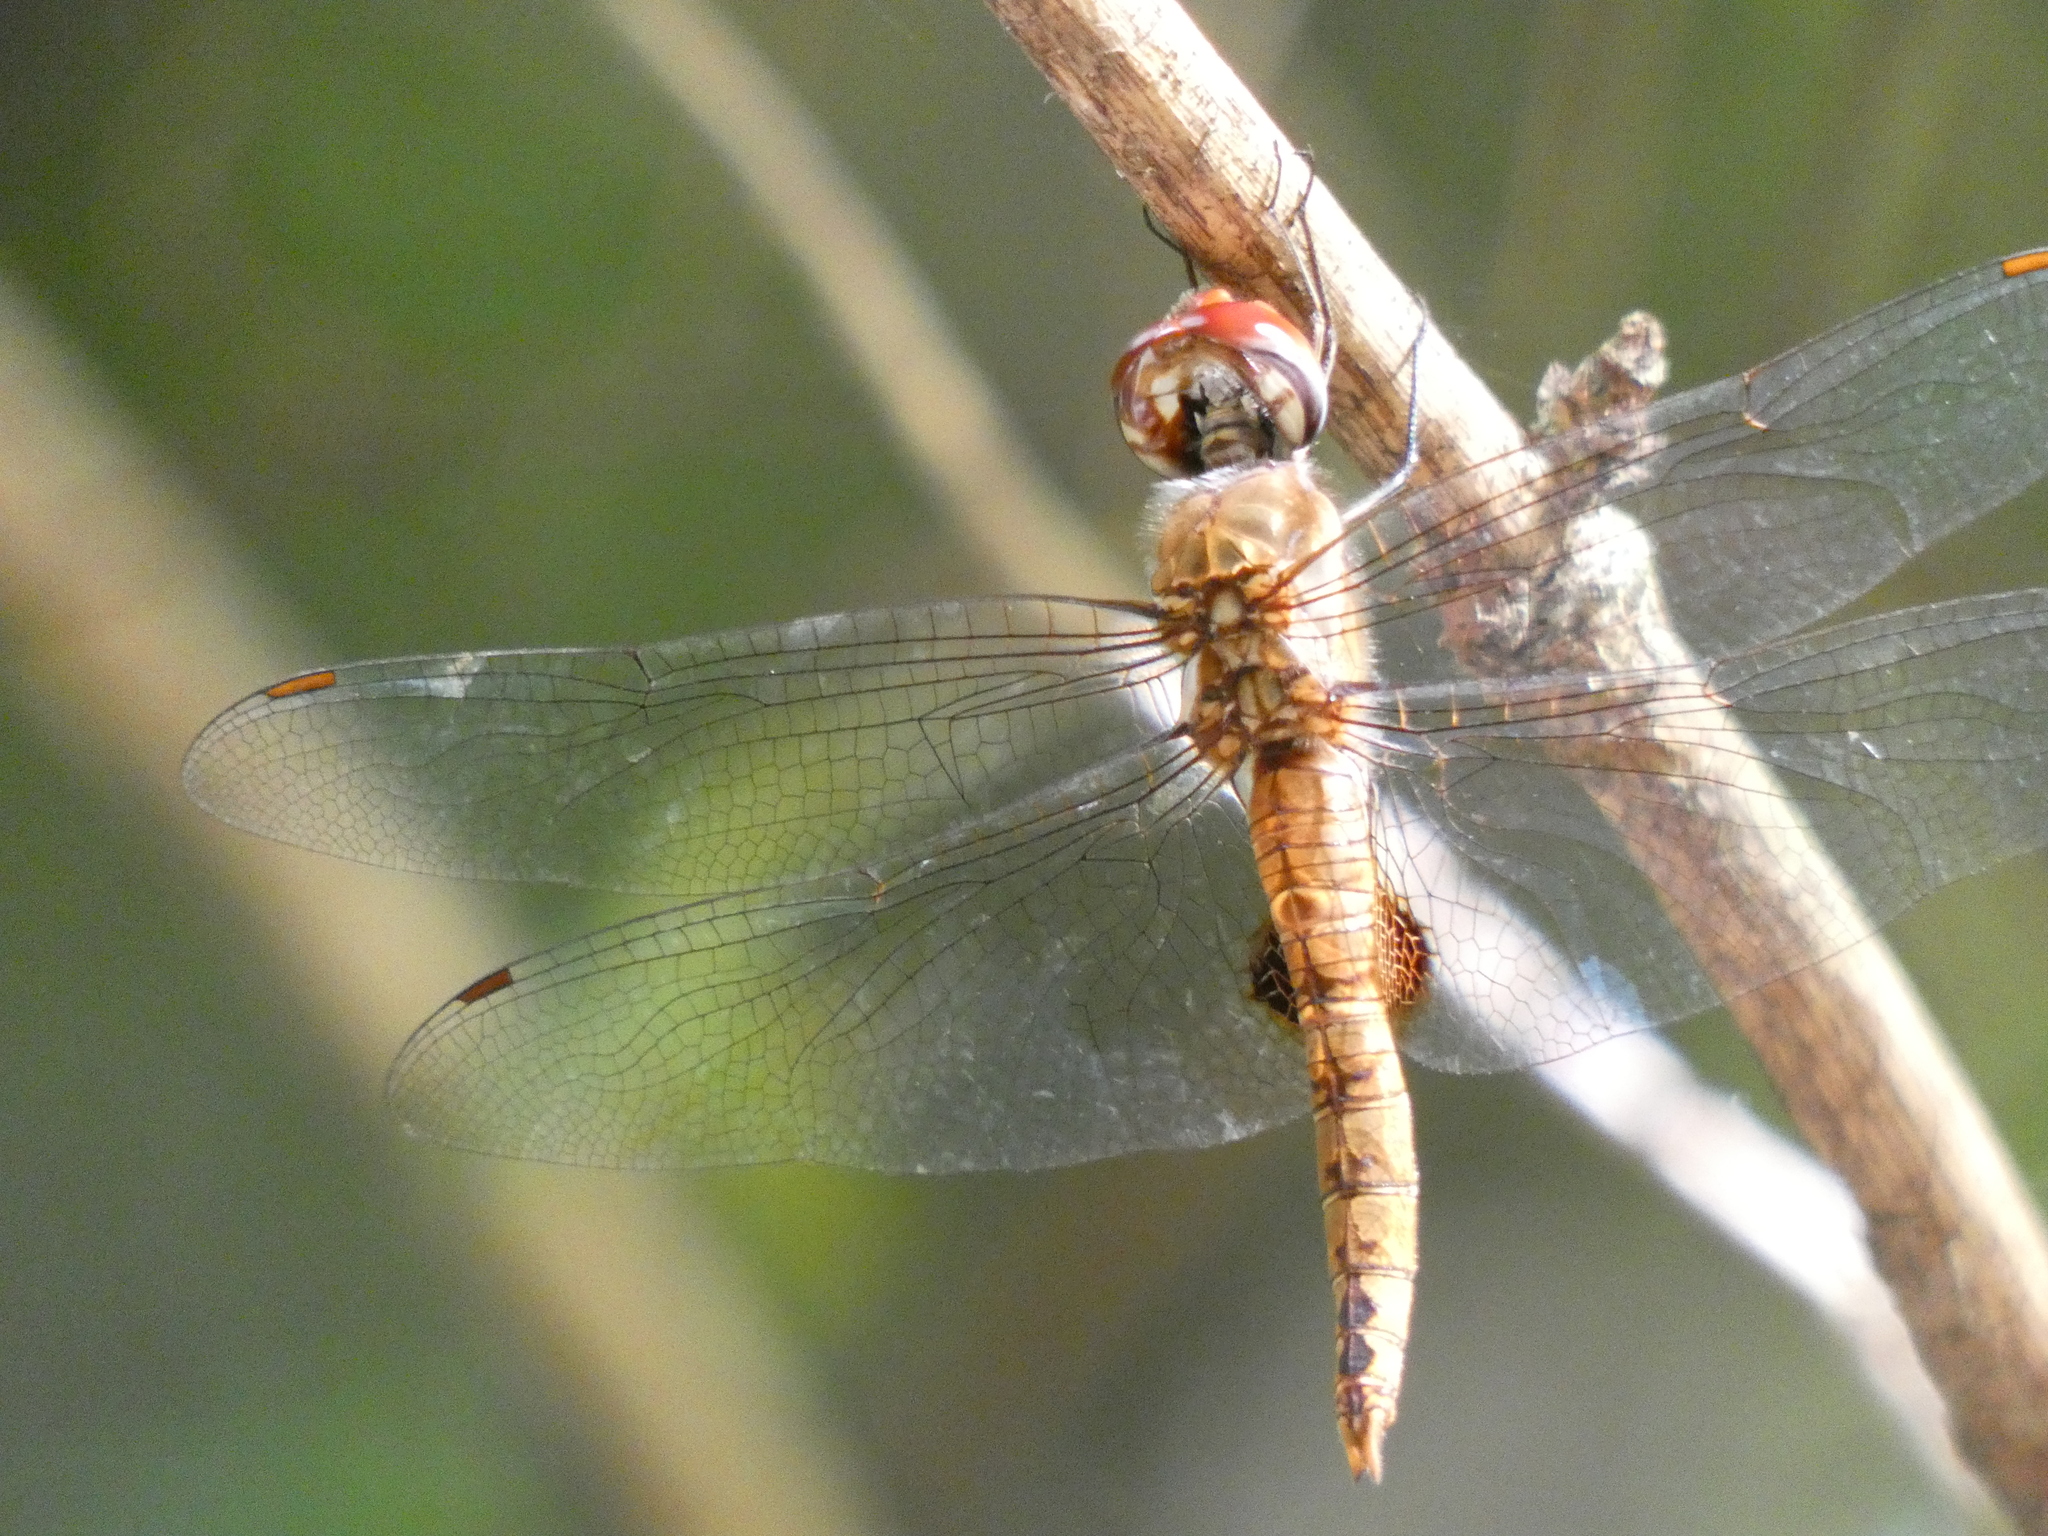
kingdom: Animalia
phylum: Arthropoda
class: Insecta
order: Odonata
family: Libellulidae
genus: Pantala
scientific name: Pantala hymenaea
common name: Spot-winged glider
